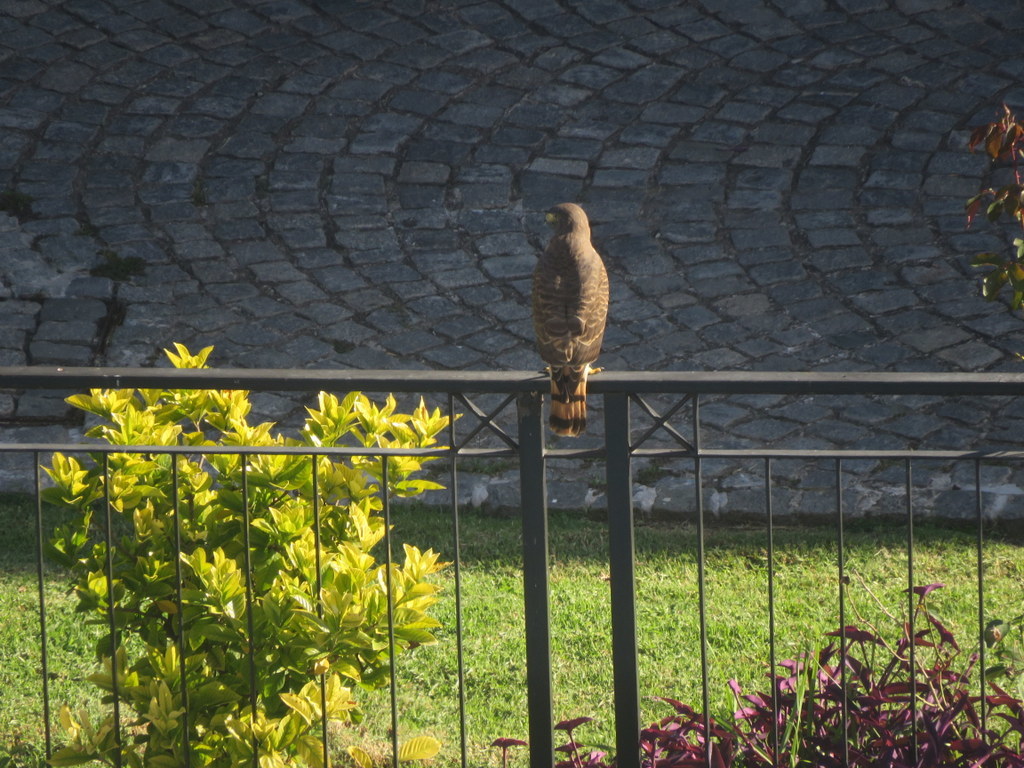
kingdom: Animalia
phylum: Chordata
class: Aves
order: Accipitriformes
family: Accipitridae
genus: Rupornis
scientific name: Rupornis magnirostris
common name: Roadside hawk
